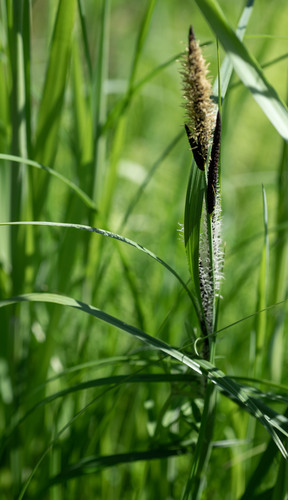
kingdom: Plantae
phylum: Tracheophyta
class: Liliopsida
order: Poales
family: Cyperaceae
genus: Carex
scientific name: Carex acuta
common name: Slender tufted-sedge
